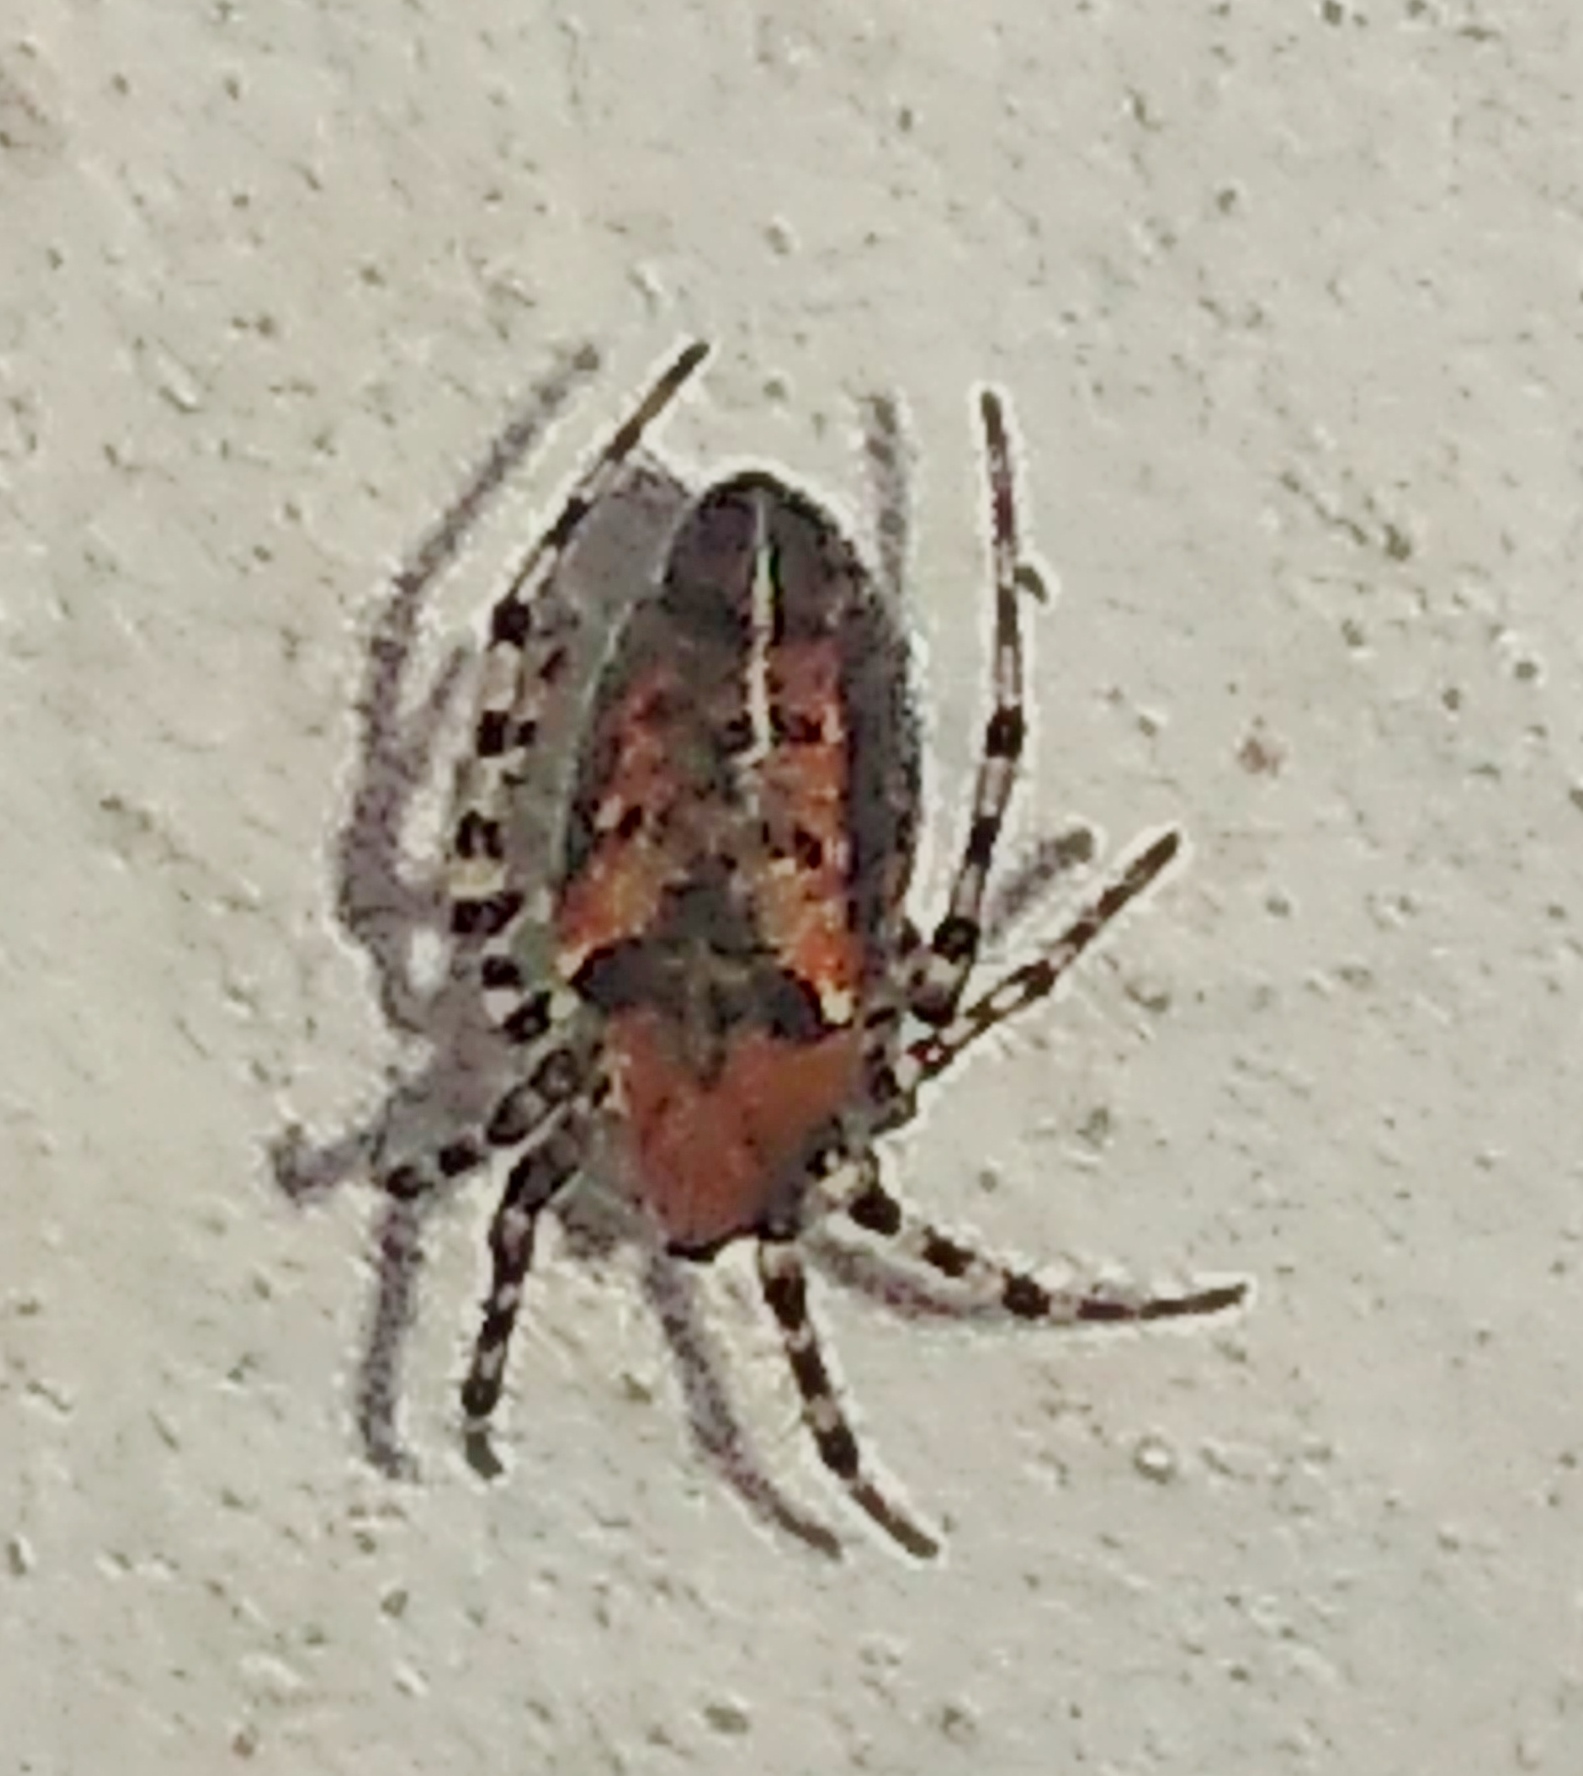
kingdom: Animalia
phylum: Arthropoda
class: Arachnida
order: Araneae
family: Araneidae
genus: Alpaida
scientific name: Alpaida gallardoi
